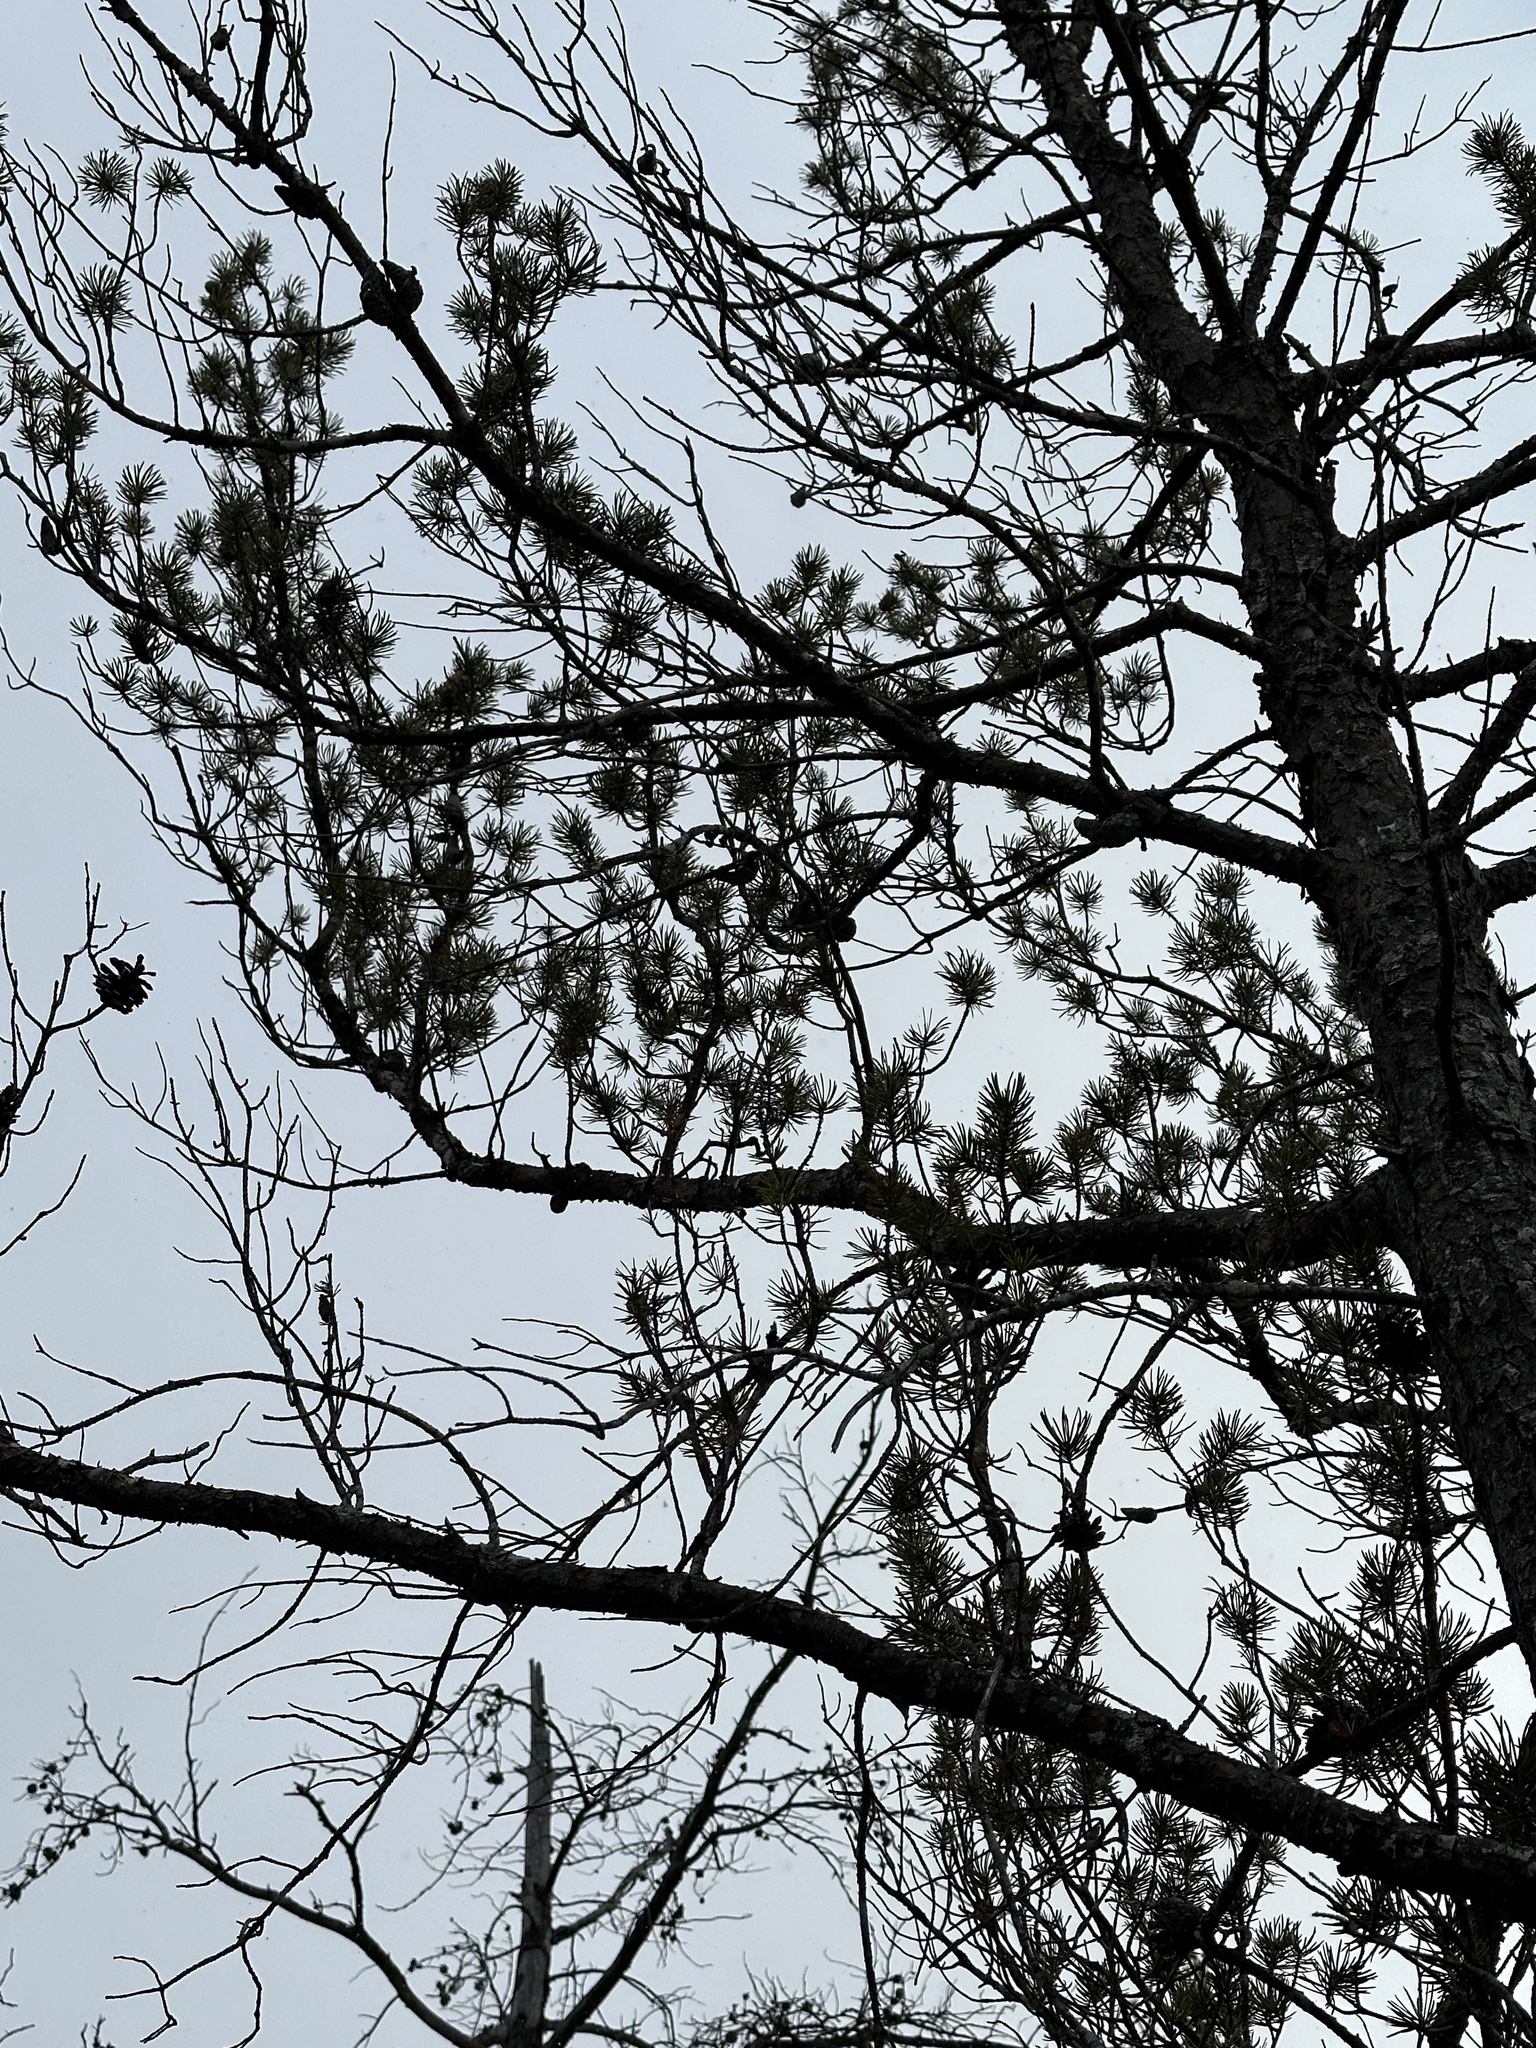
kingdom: Plantae
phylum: Tracheophyta
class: Pinopsida
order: Pinales
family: Pinaceae
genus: Pinus
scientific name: Pinus banksiana
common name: Jack pine
